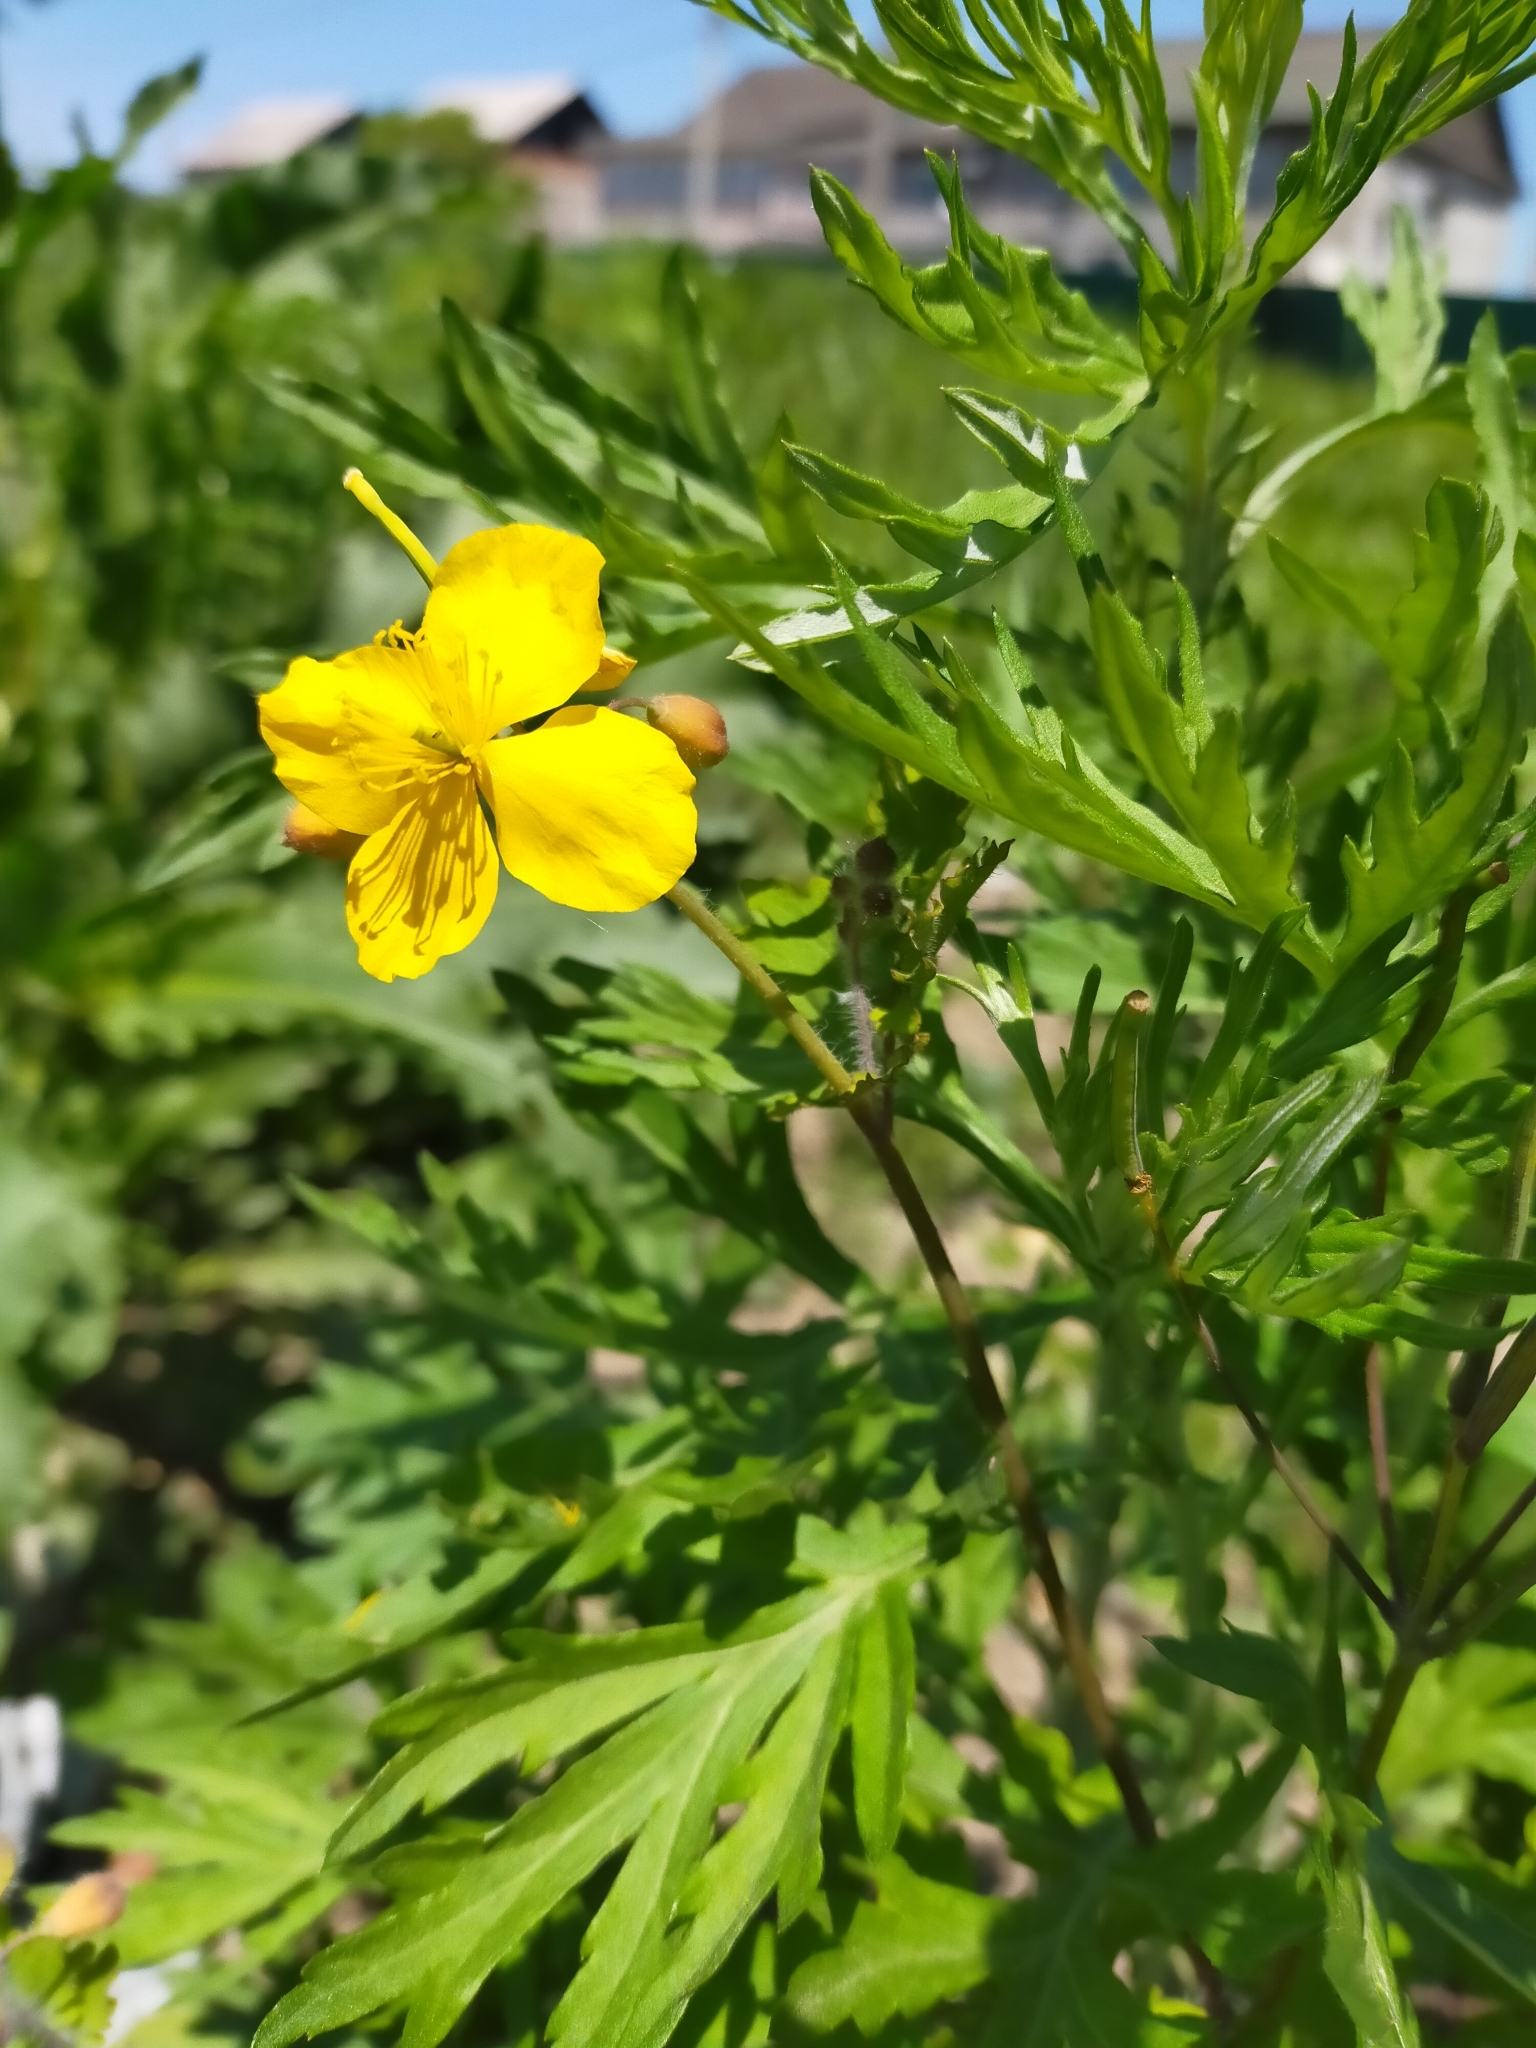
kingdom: Plantae
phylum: Tracheophyta
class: Magnoliopsida
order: Ranunculales
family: Papaveraceae
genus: Chelidonium
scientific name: Chelidonium majus
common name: Greater celandine
